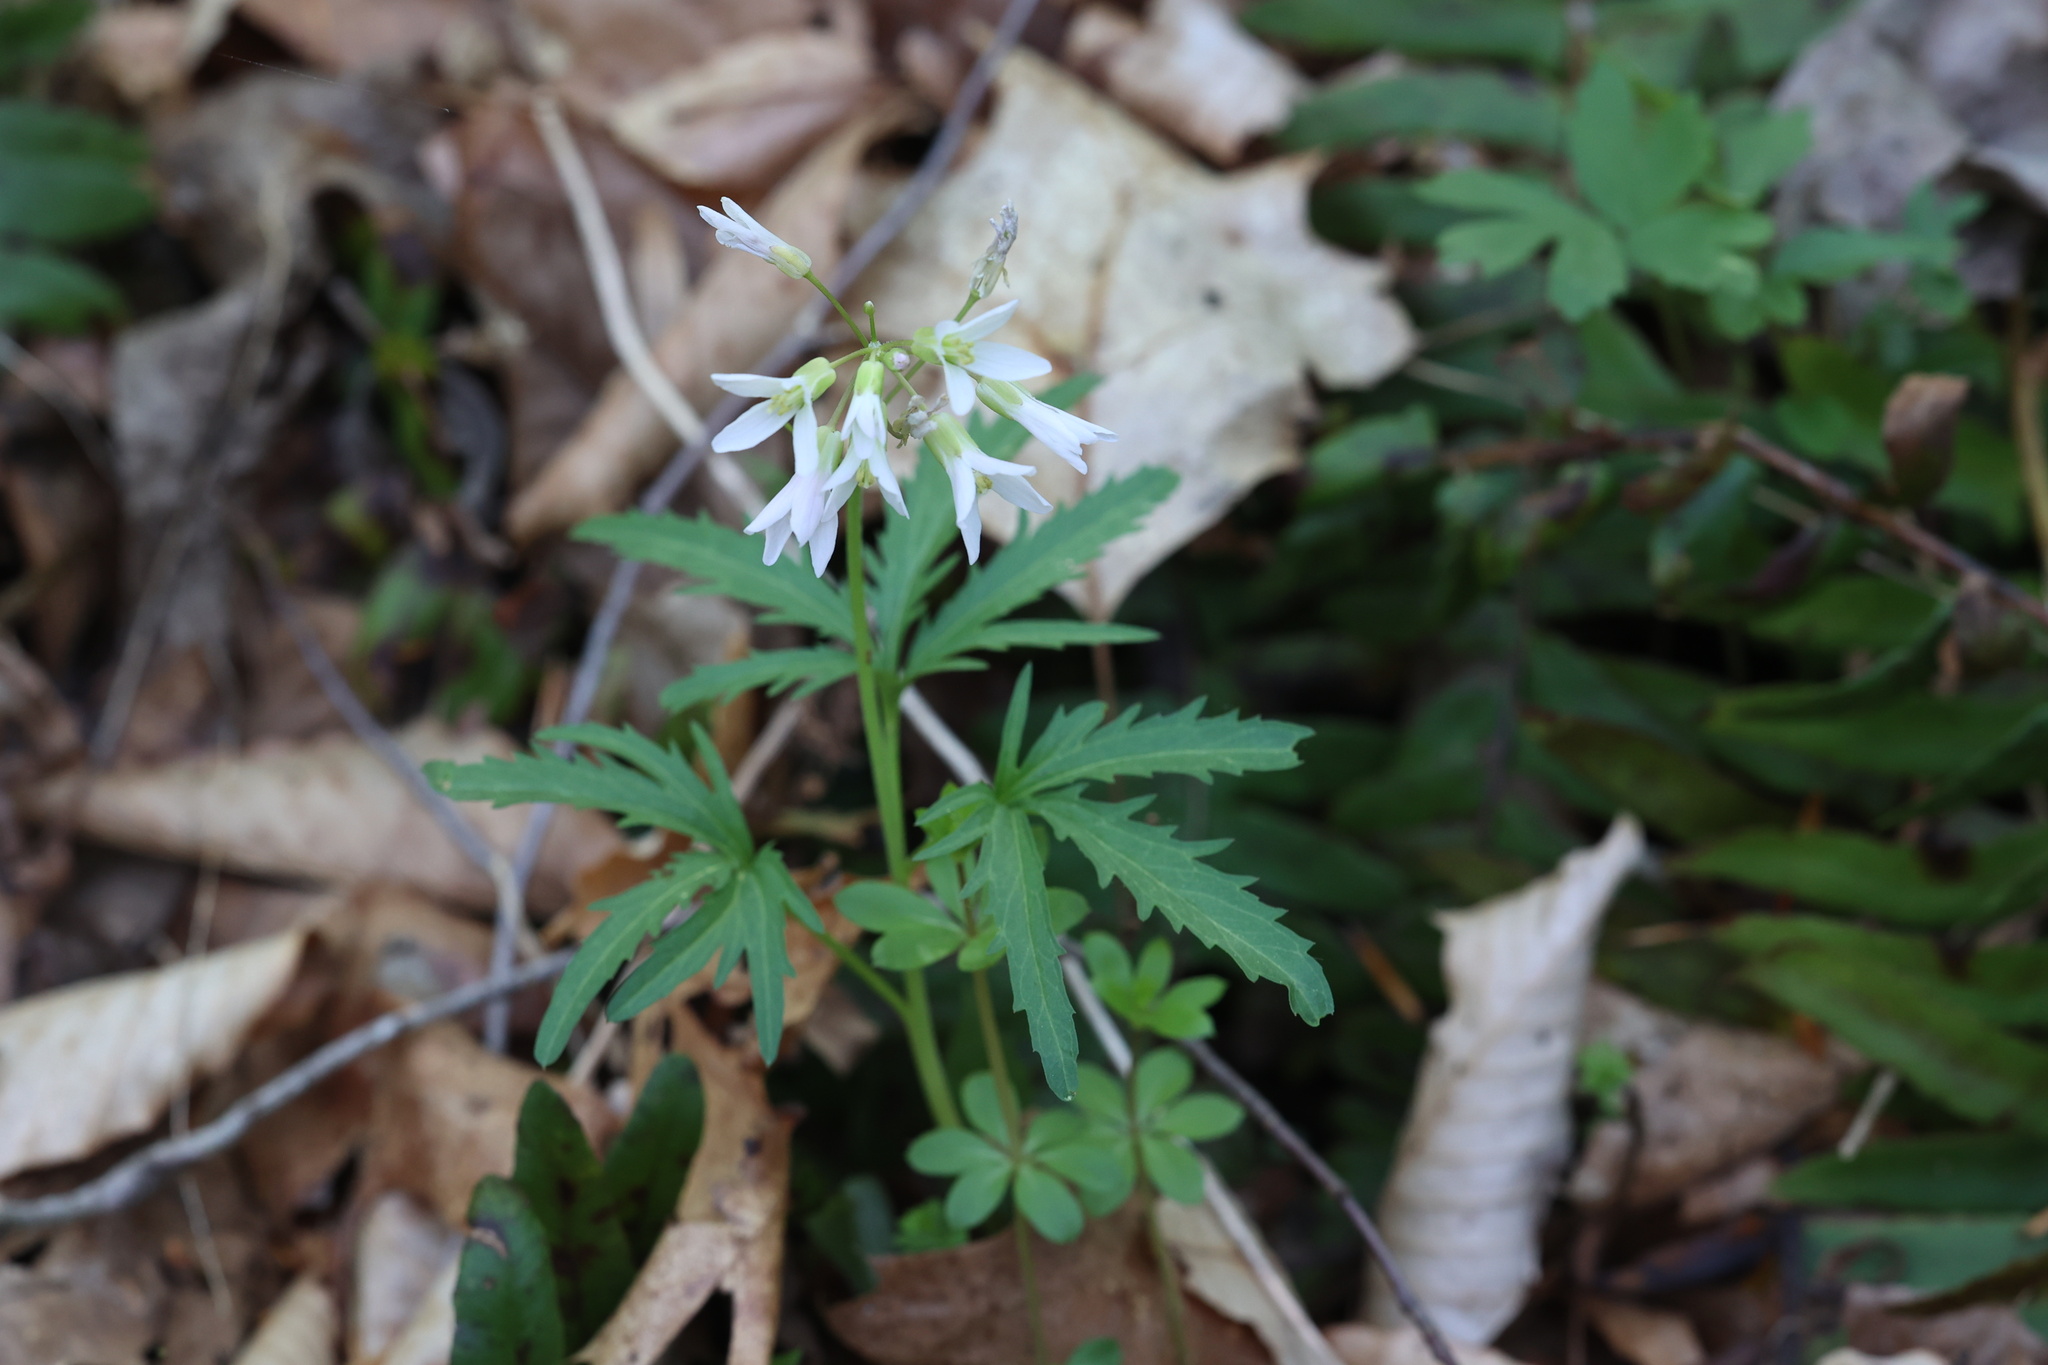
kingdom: Plantae
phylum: Tracheophyta
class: Magnoliopsida
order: Brassicales
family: Brassicaceae
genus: Cardamine
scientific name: Cardamine concatenata
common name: Cut-leaf toothcup
